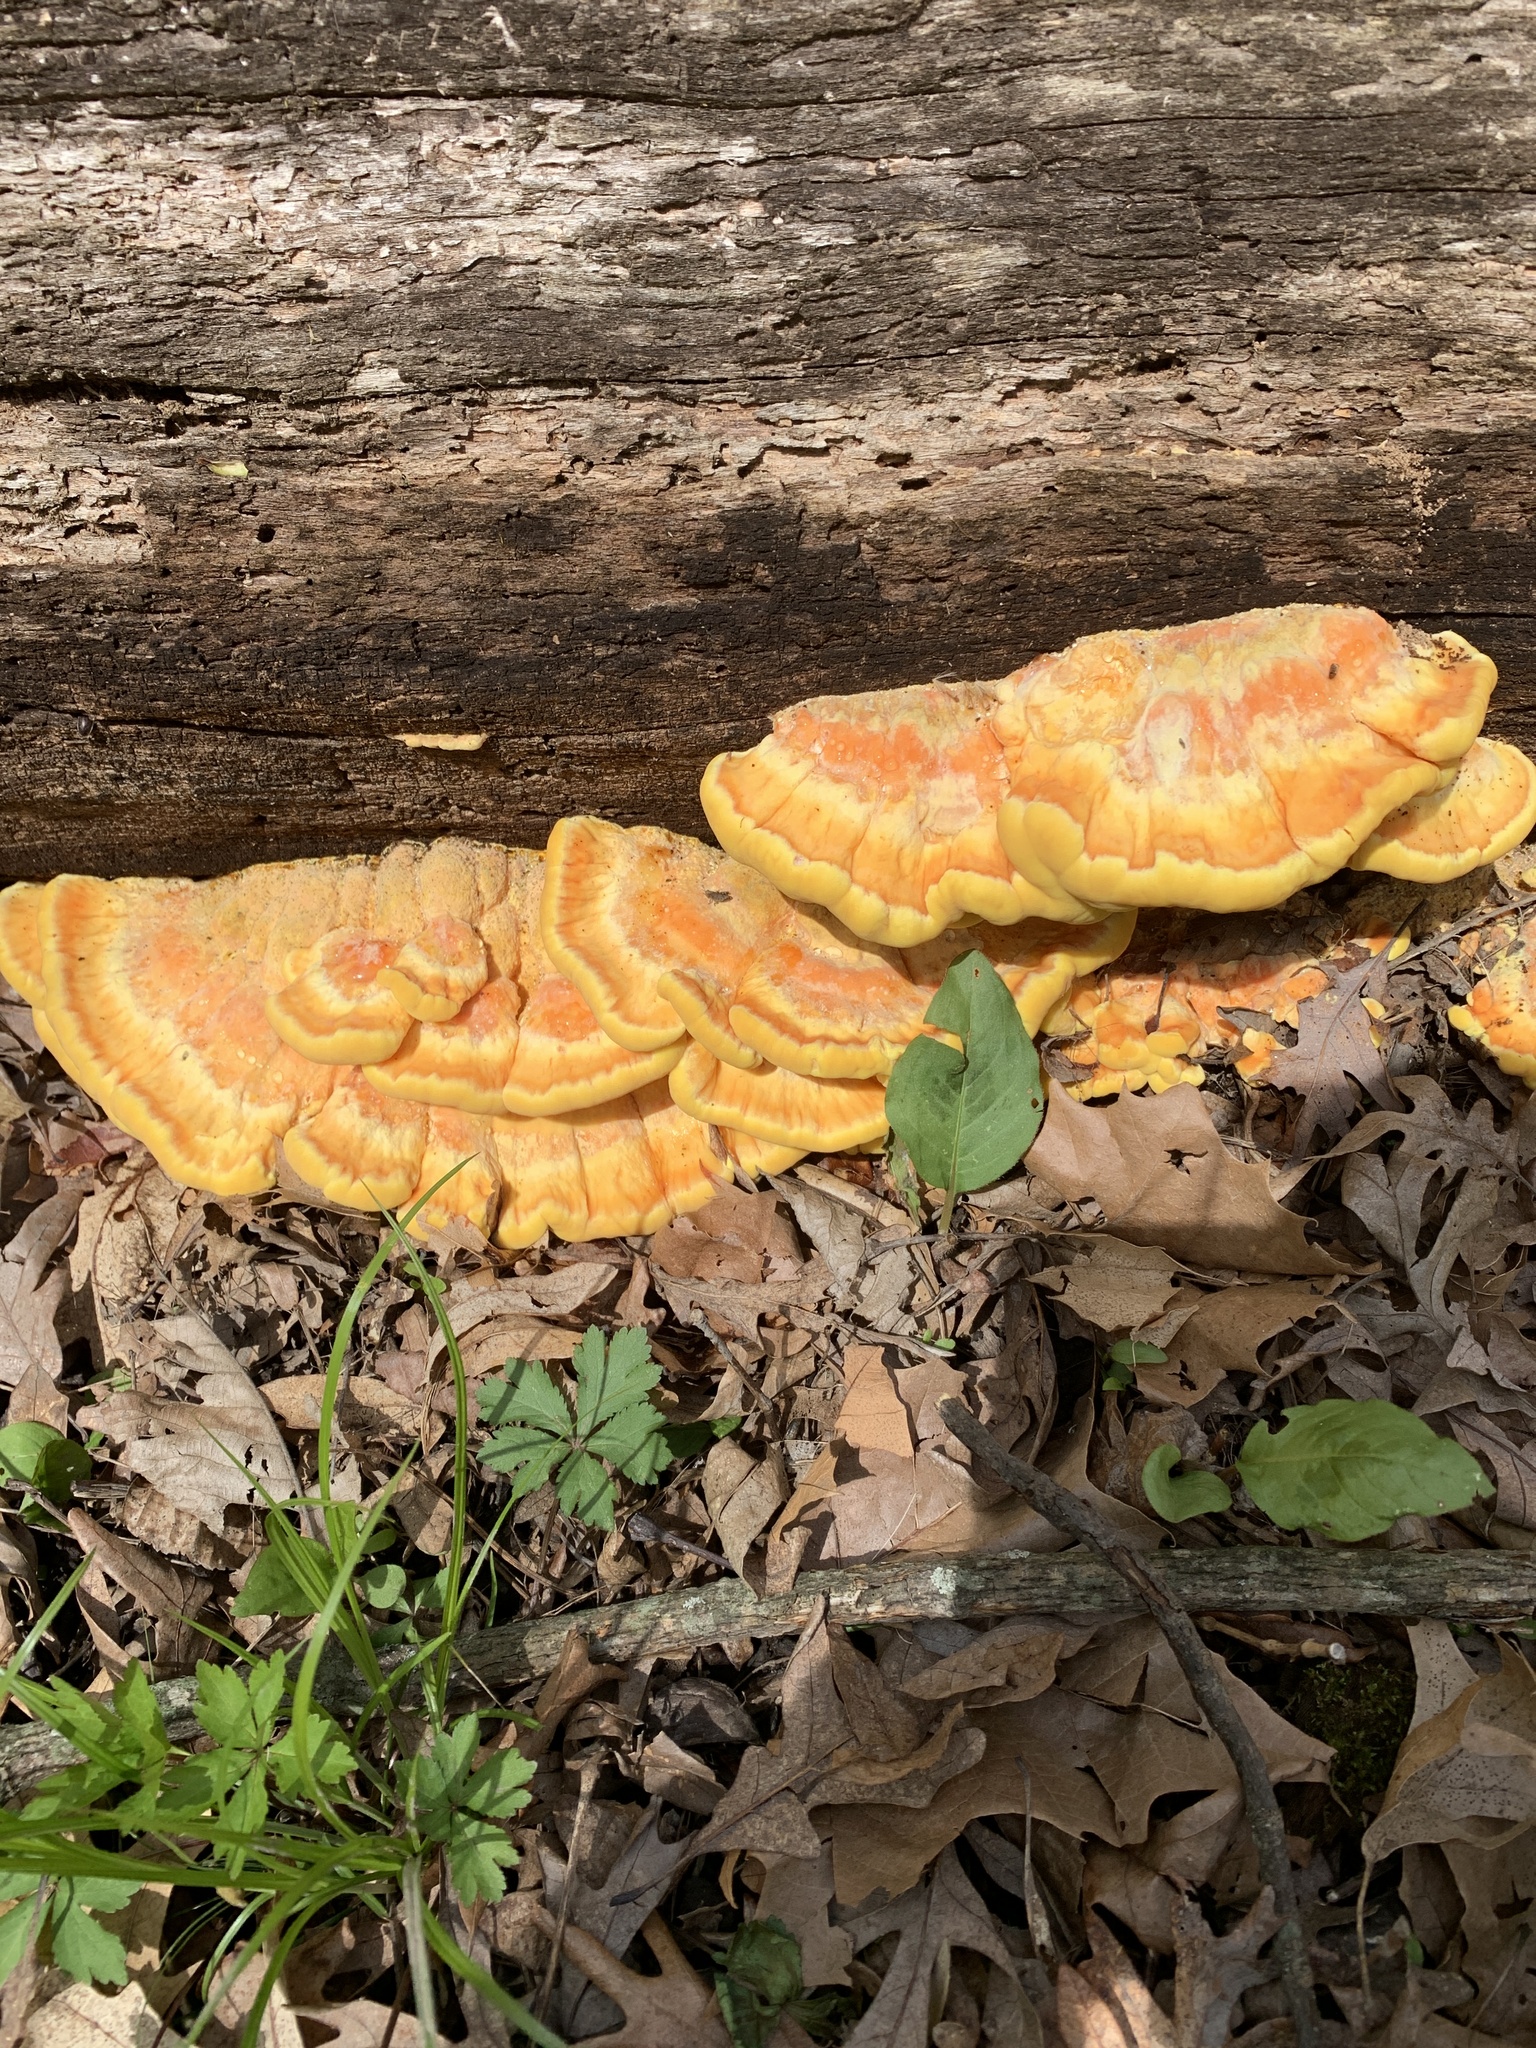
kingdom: Fungi
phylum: Basidiomycota
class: Agaricomycetes
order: Polyporales
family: Laetiporaceae
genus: Laetiporus
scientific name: Laetiporus sulphureus
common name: Chicken of the woods
